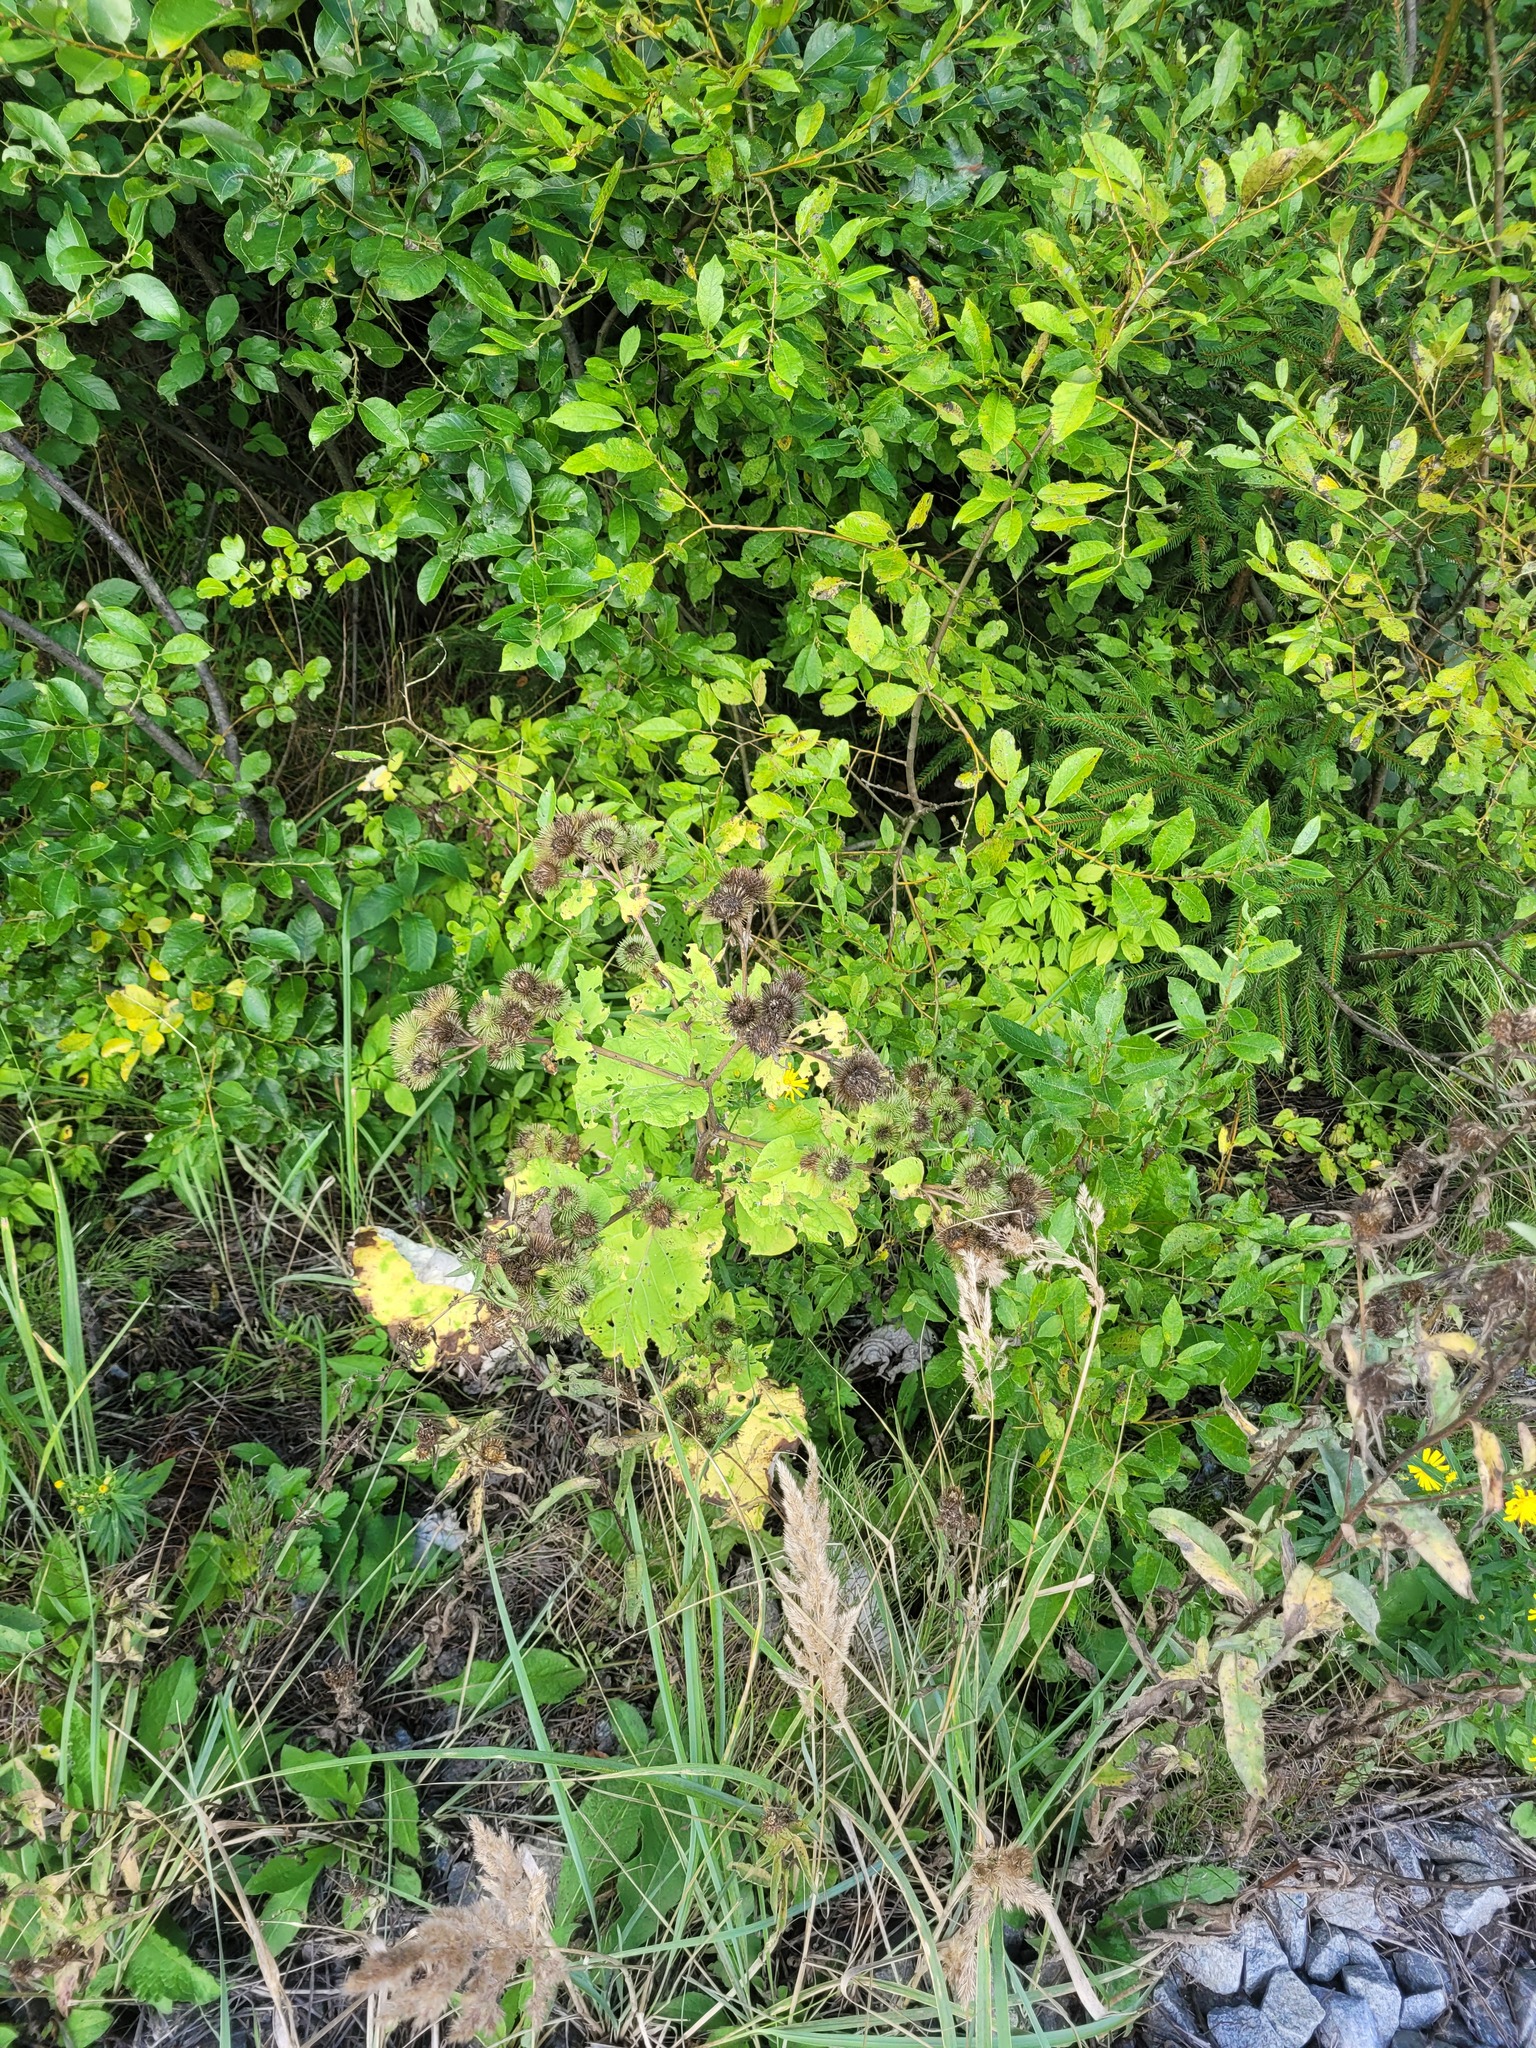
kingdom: Plantae
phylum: Tracheophyta
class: Magnoliopsida
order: Asterales
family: Asteraceae
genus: Arctium
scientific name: Arctium lappa
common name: Greater burdock
